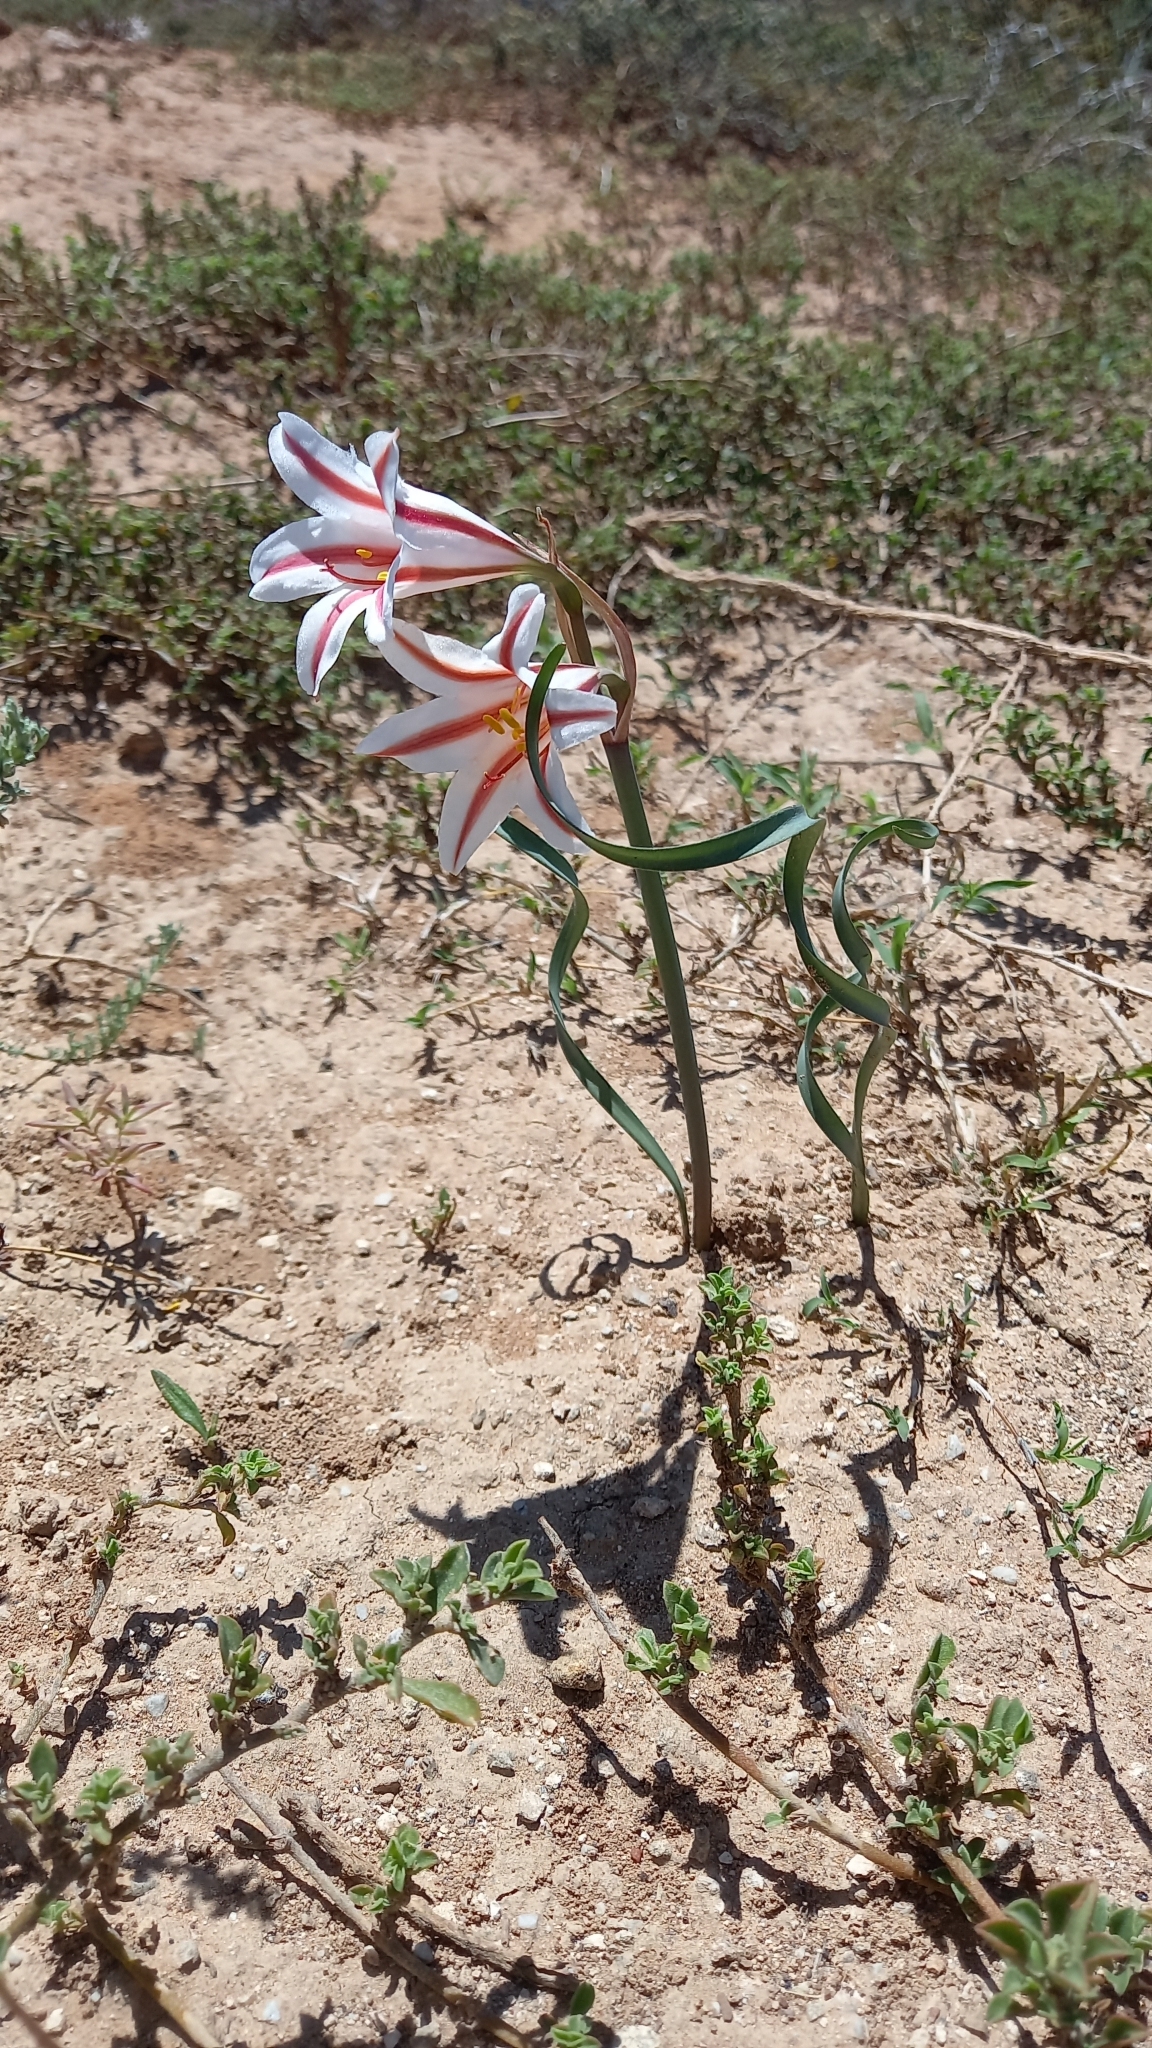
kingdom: Plantae
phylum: Tracheophyta
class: Liliopsida
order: Asparagales
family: Amaryllidaceae
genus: Cyrtanthus
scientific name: Cyrtanthus helictus
